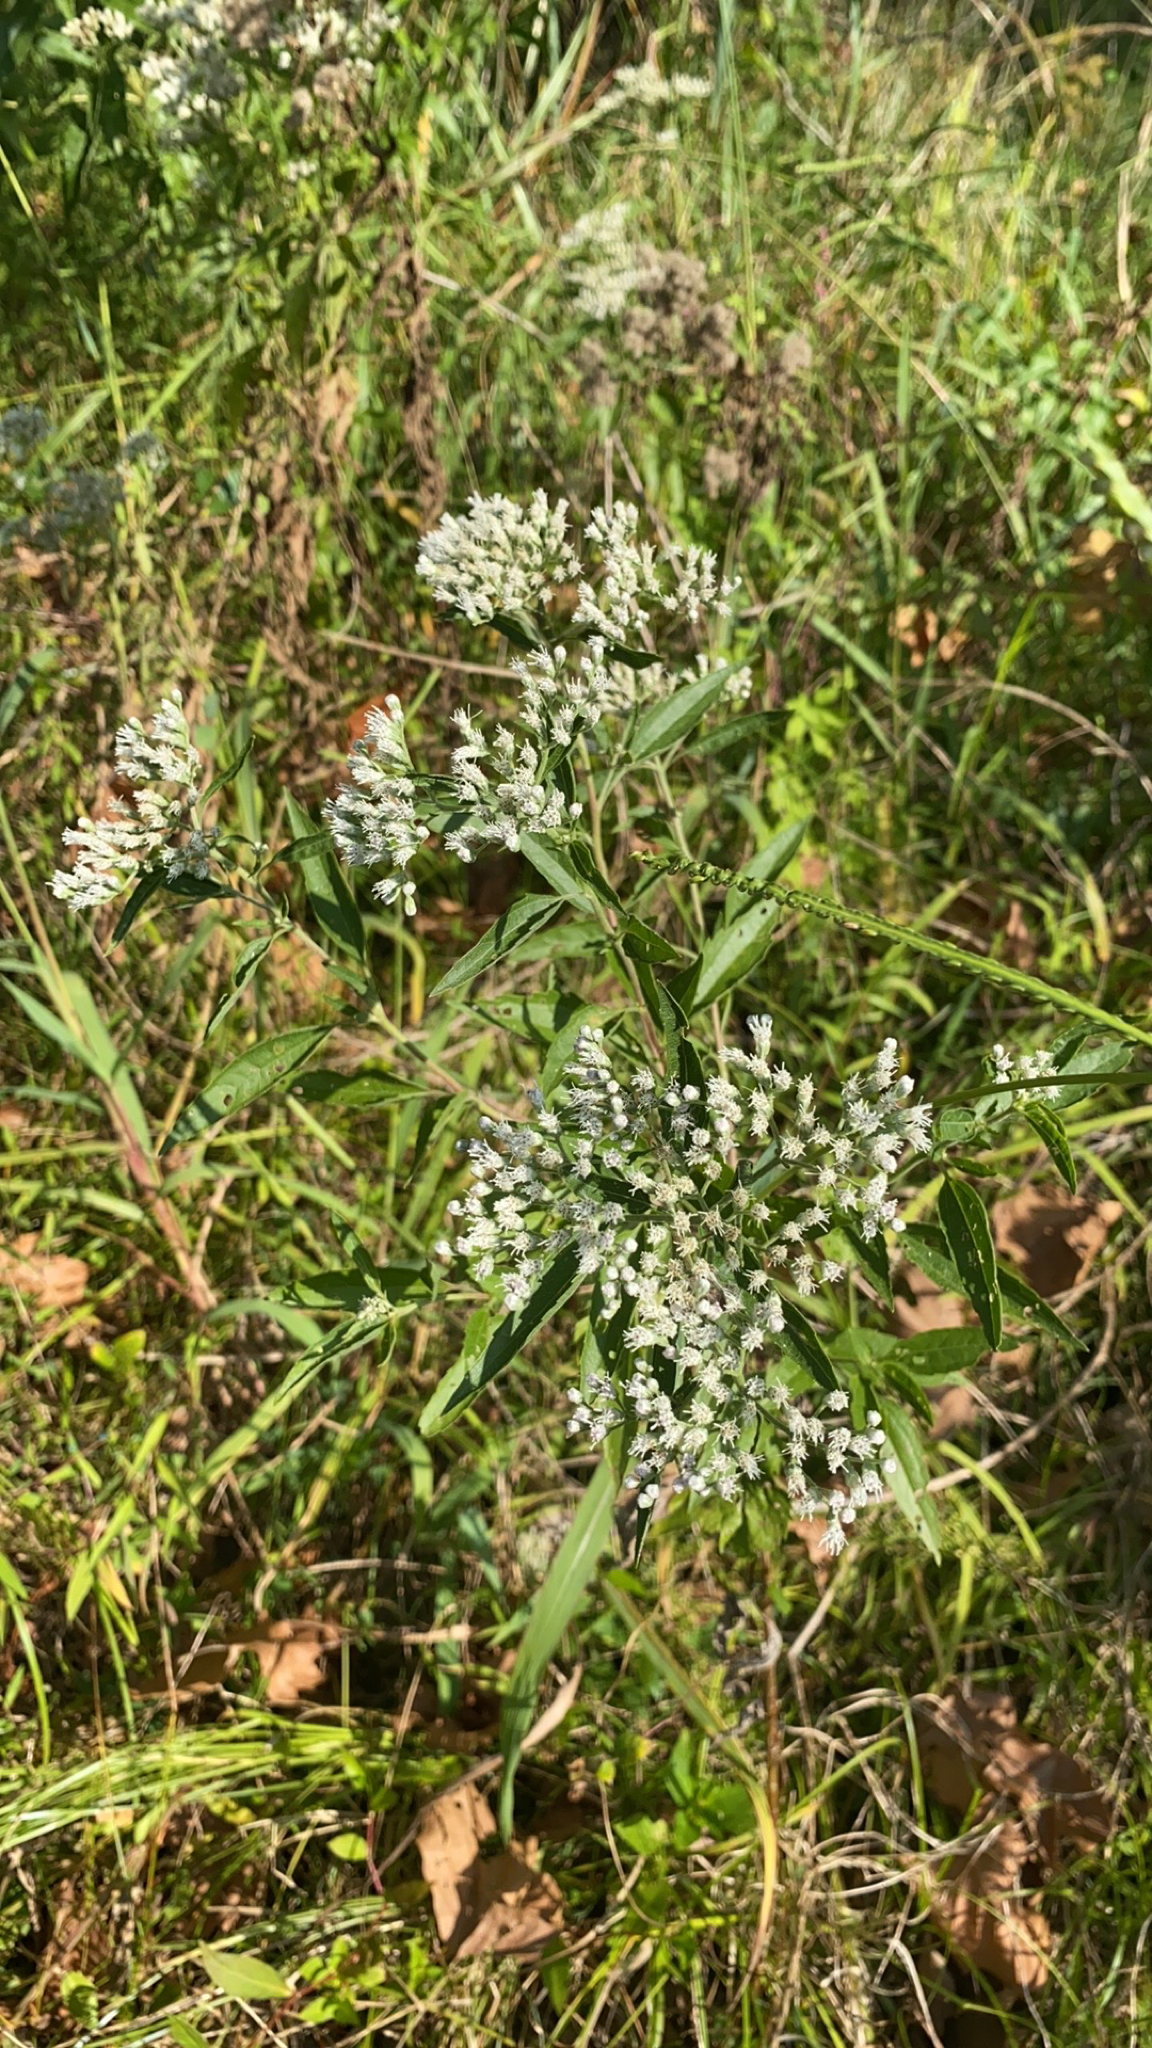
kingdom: Plantae
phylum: Tracheophyta
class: Magnoliopsida
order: Asterales
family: Asteraceae
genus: Eupatorium
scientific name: Eupatorium serotinum
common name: Late boneset
